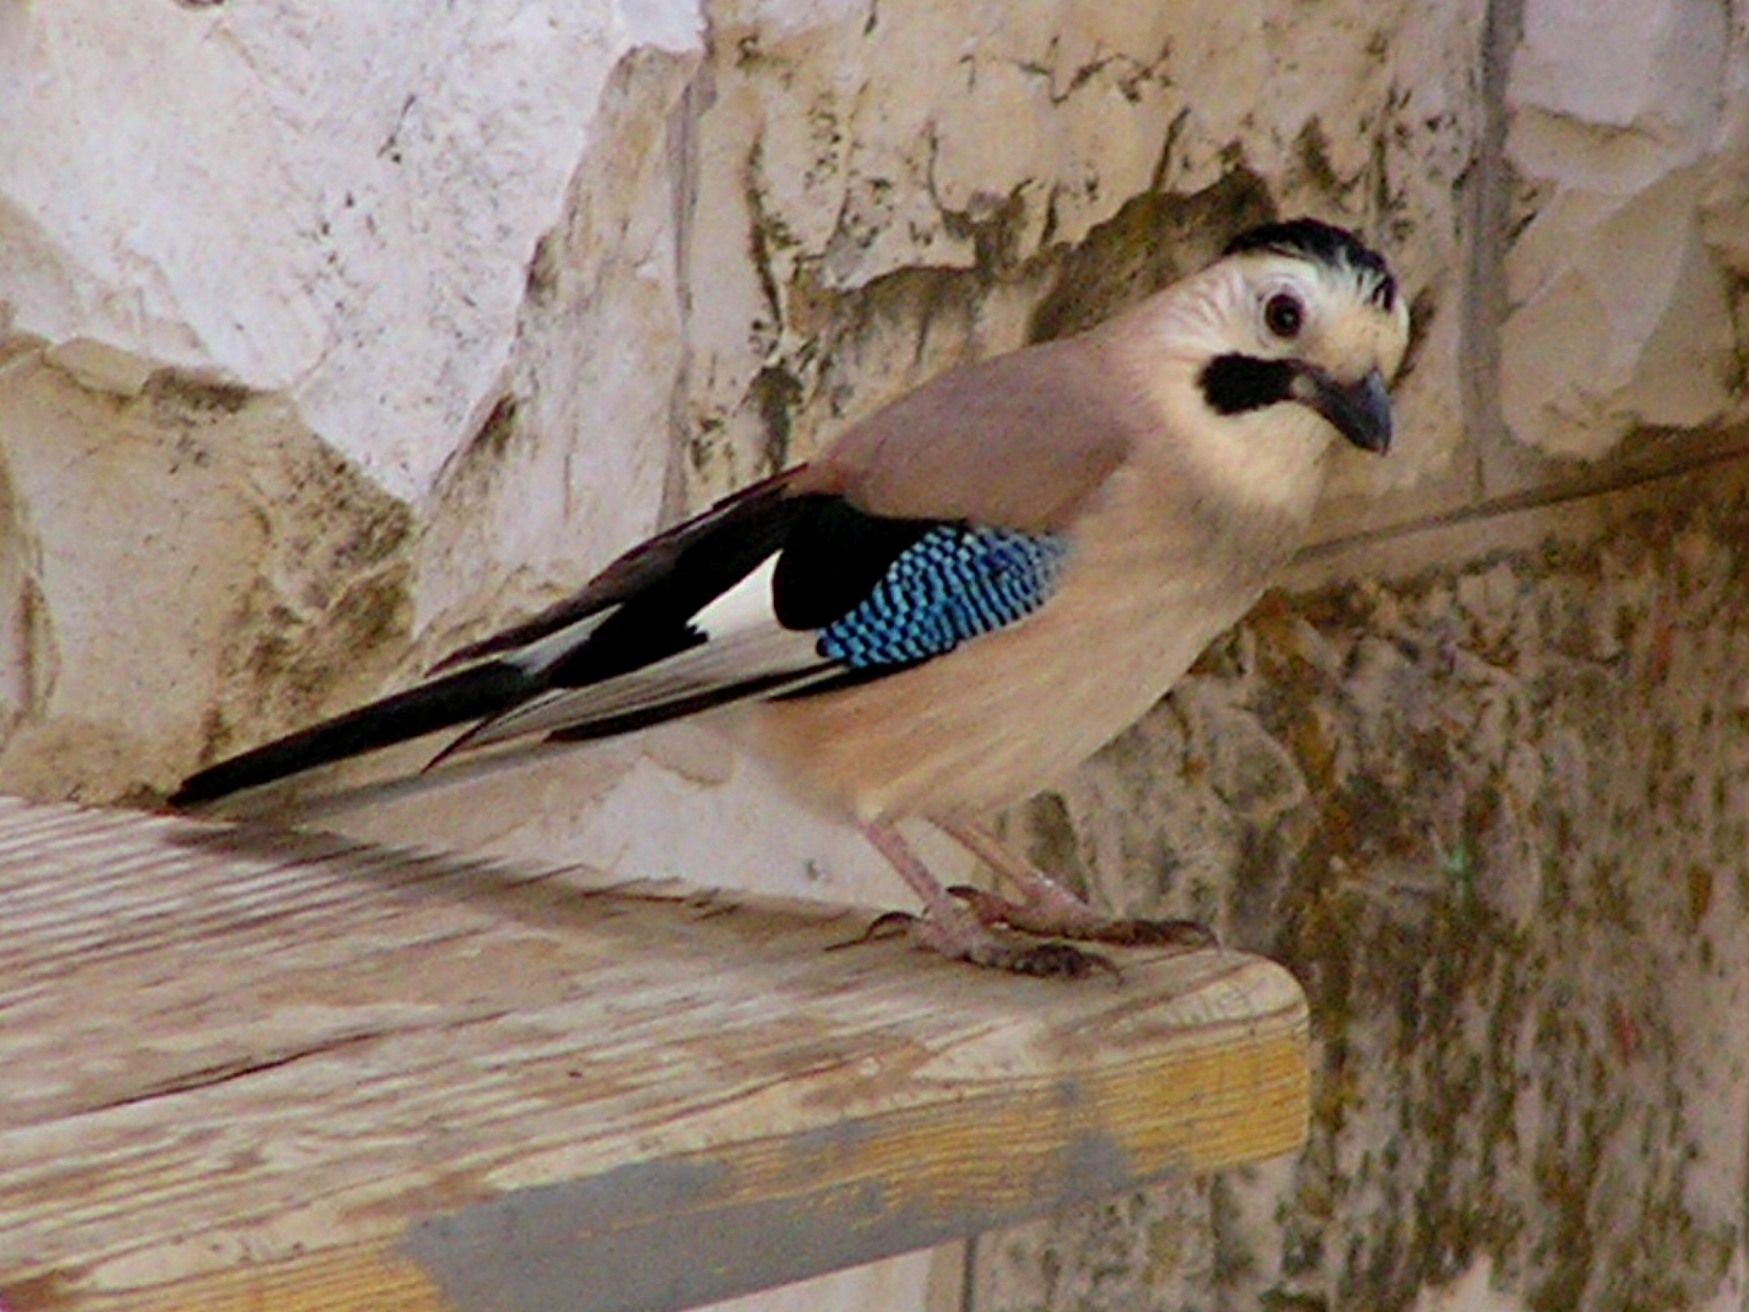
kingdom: Animalia
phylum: Chordata
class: Aves
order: Passeriformes
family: Corvidae
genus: Garrulus
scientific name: Garrulus glandarius
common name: Eurasian jay
